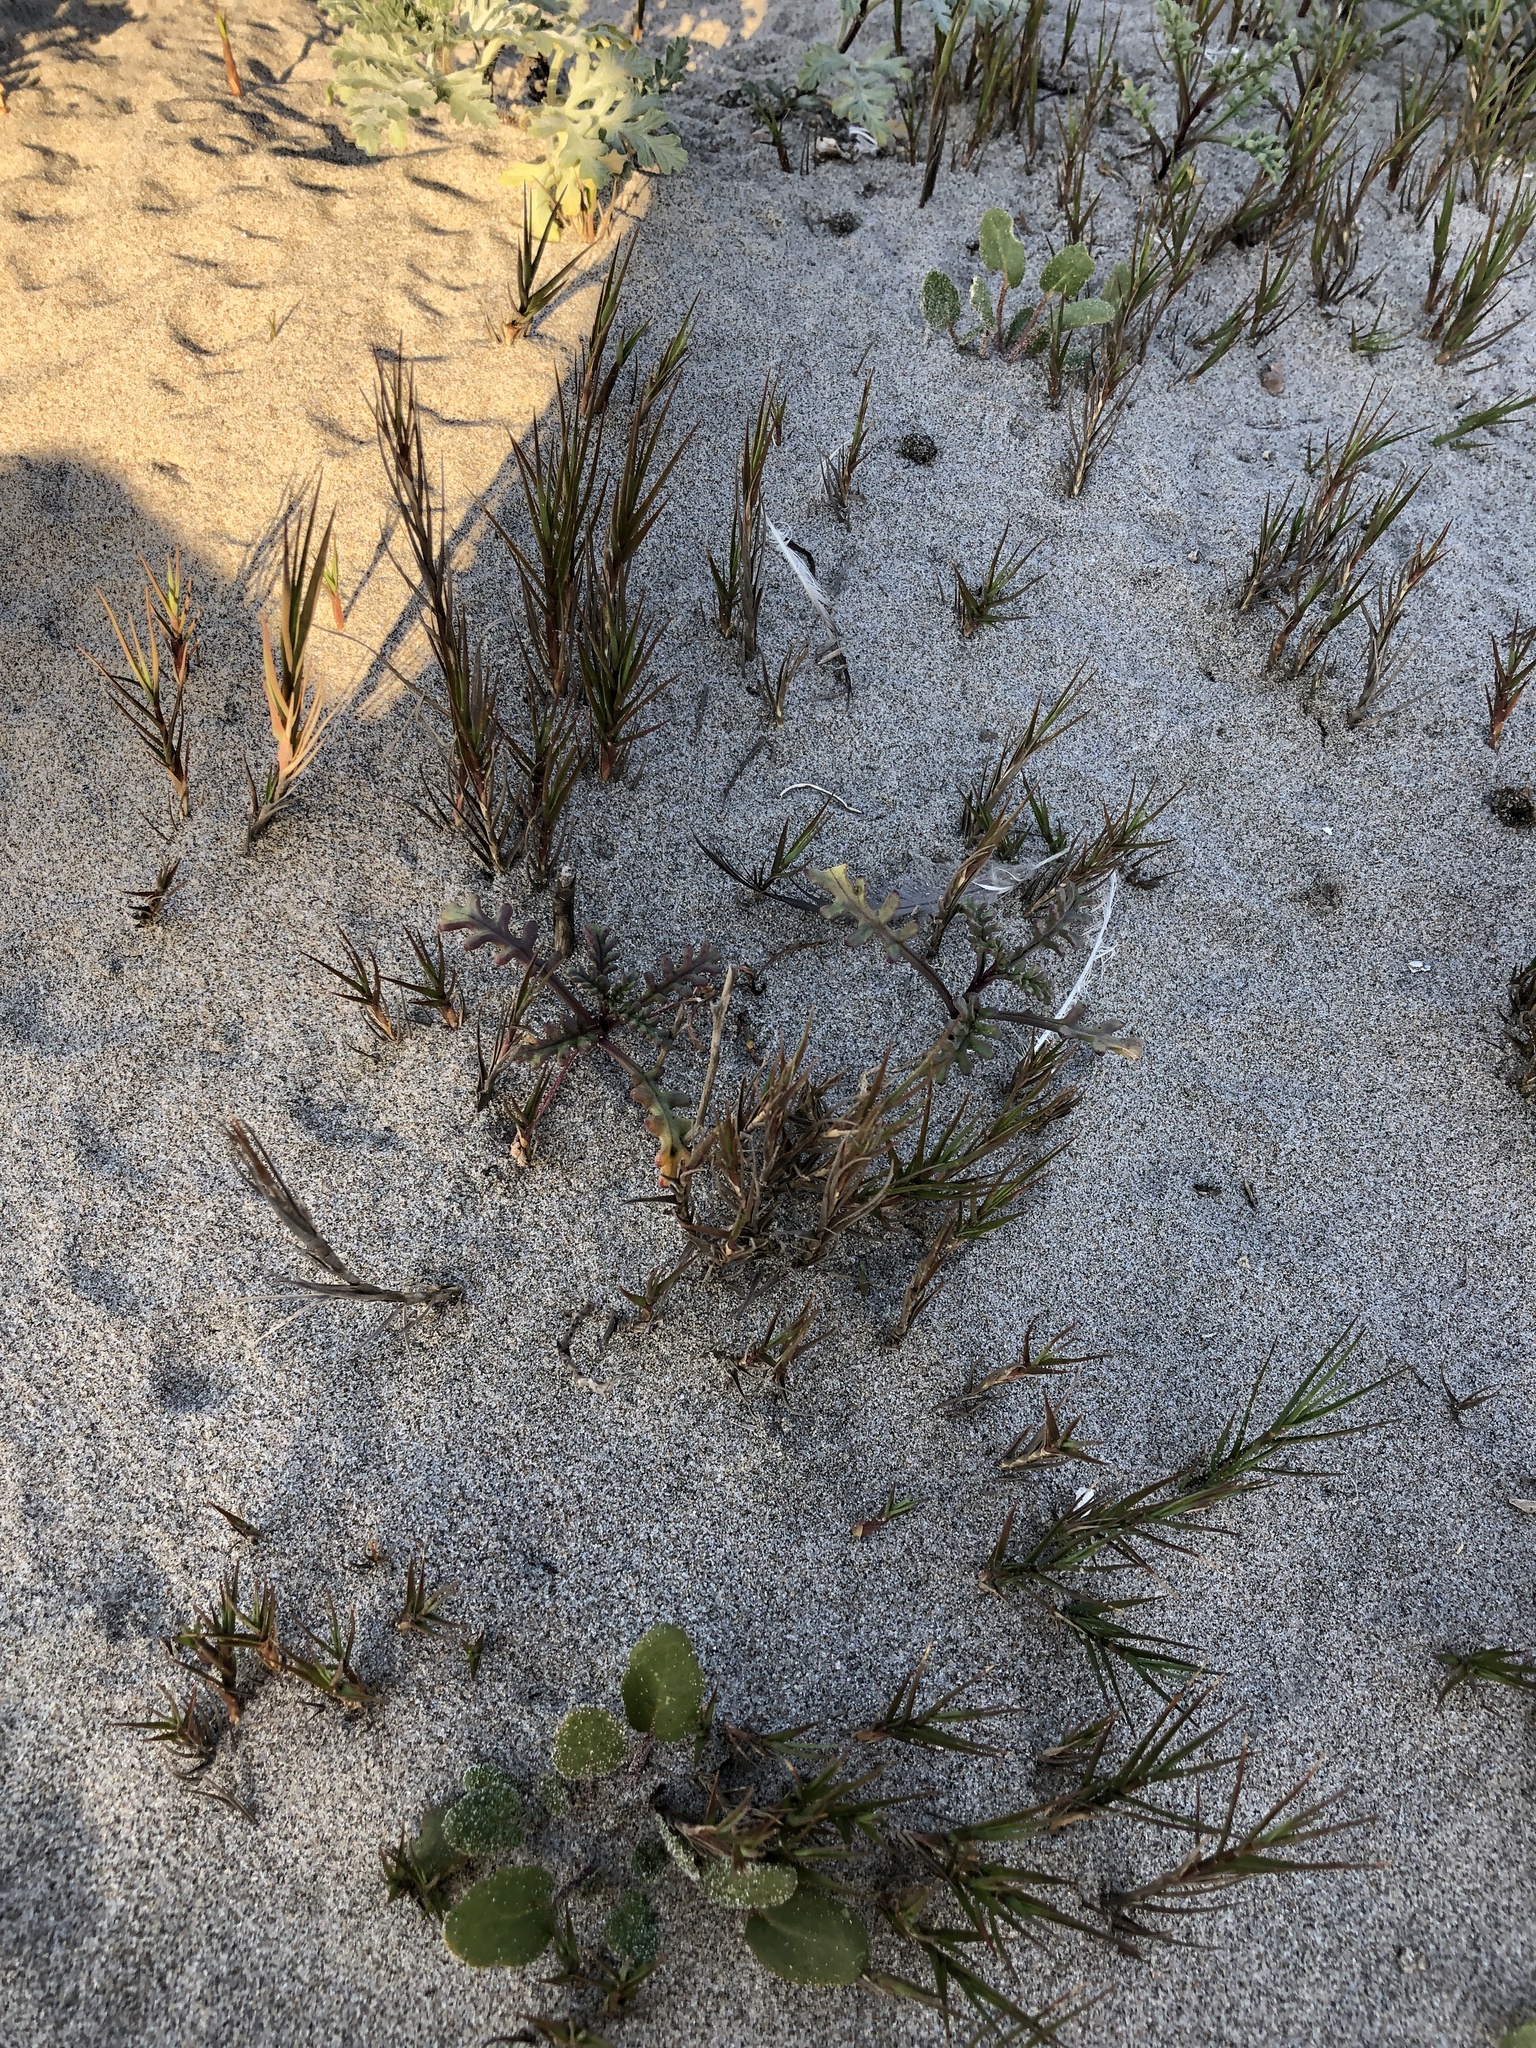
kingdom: Plantae
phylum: Tracheophyta
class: Liliopsida
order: Poales
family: Poaceae
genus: Distichlis
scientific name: Distichlis spicata
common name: Saltgrass
